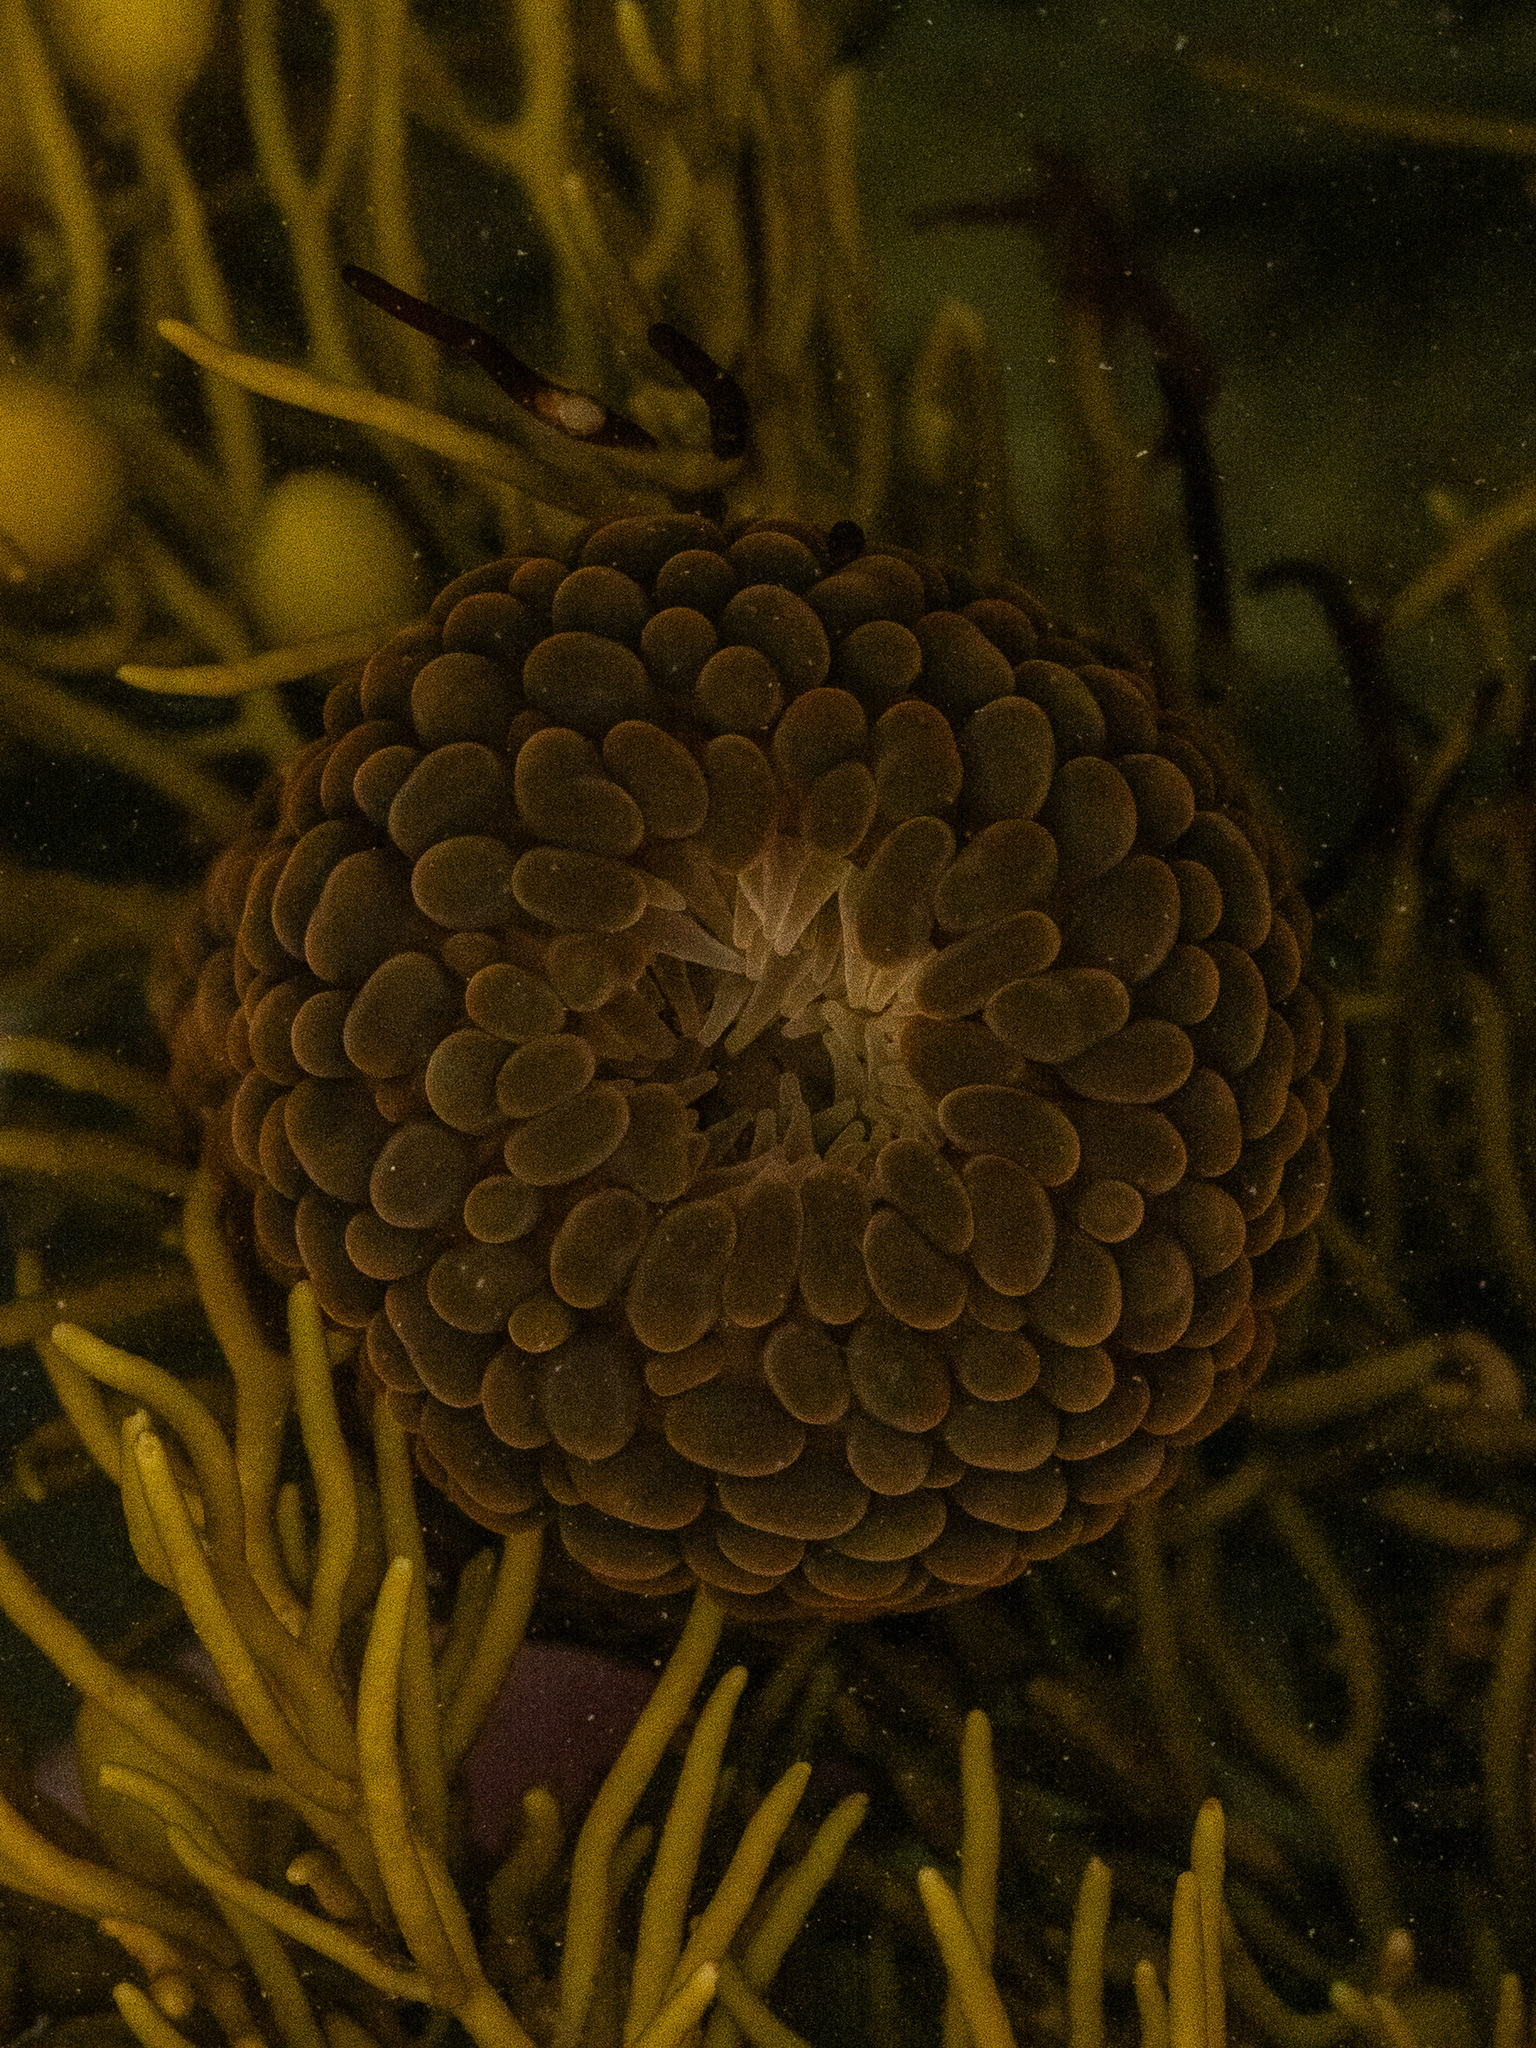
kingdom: Animalia
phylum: Cnidaria
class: Anthozoa
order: Actiniaria
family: Actiniidae
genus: Phlyctenactis
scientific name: Phlyctenactis tuberculosa
